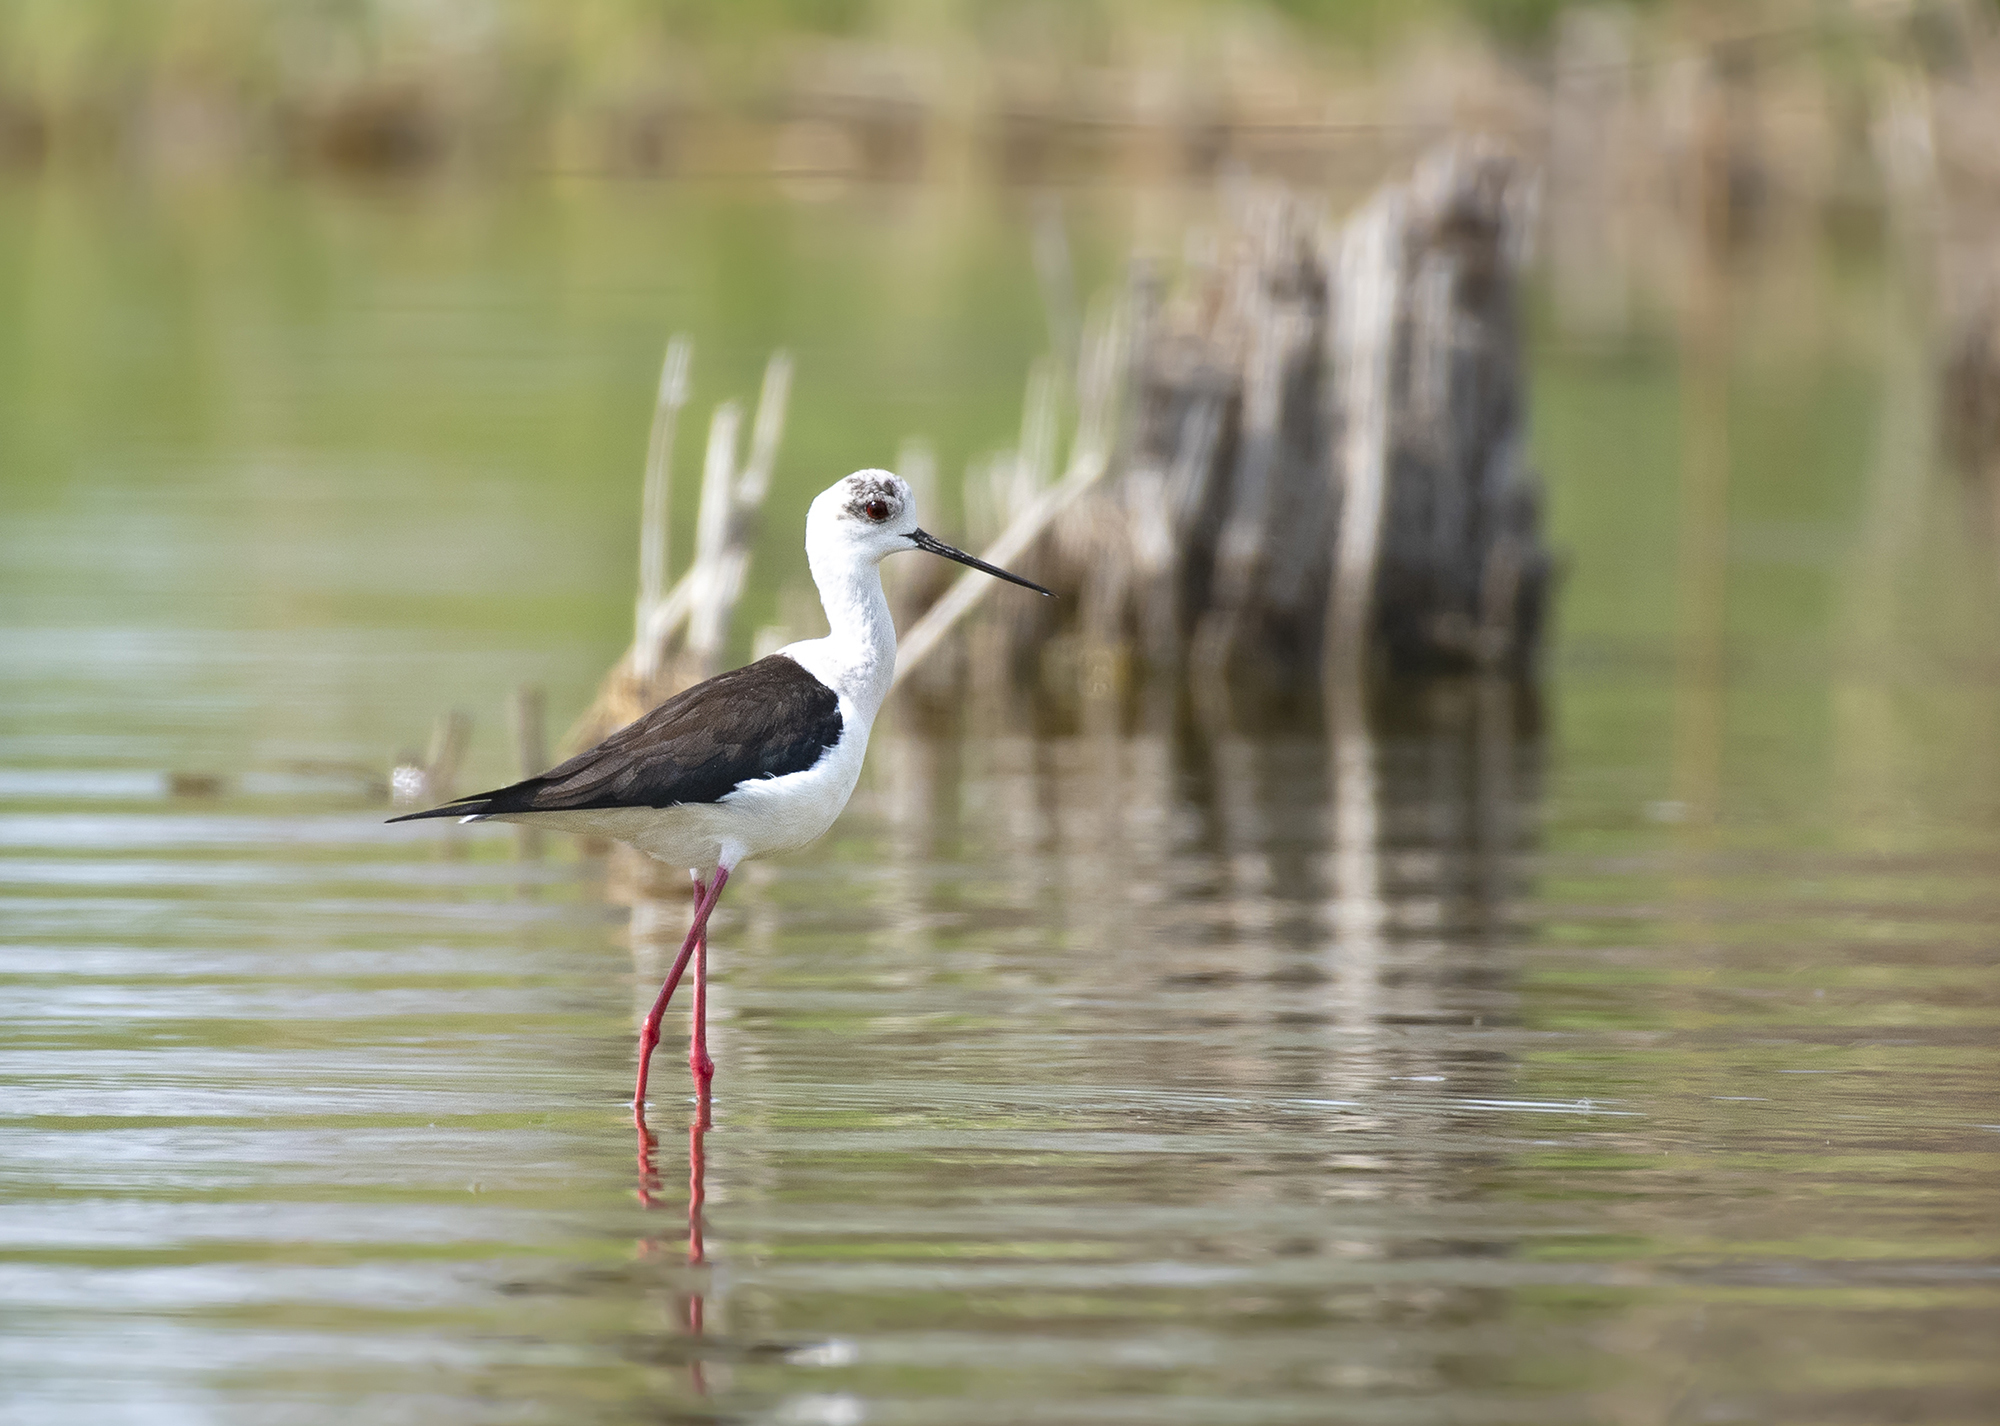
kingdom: Animalia
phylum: Chordata
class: Aves
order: Charadriiformes
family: Recurvirostridae
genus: Himantopus
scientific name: Himantopus himantopus
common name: Black-winged stilt
